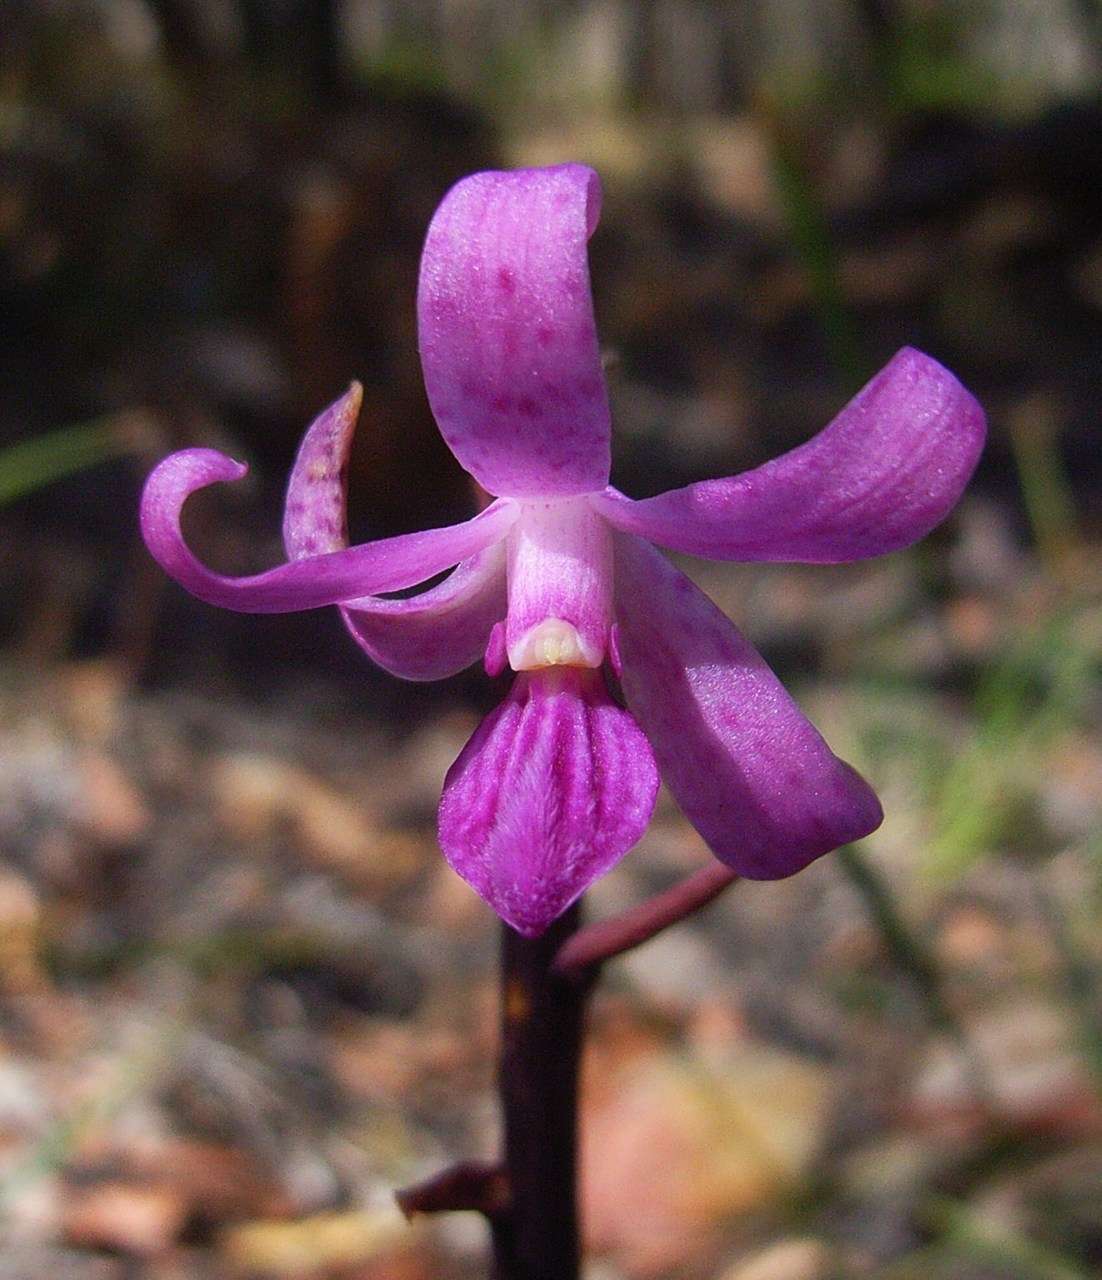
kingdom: Plantae
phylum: Tracheophyta
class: Liliopsida
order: Asparagales
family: Orchidaceae
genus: Dipodium
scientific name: Dipodium roseum
